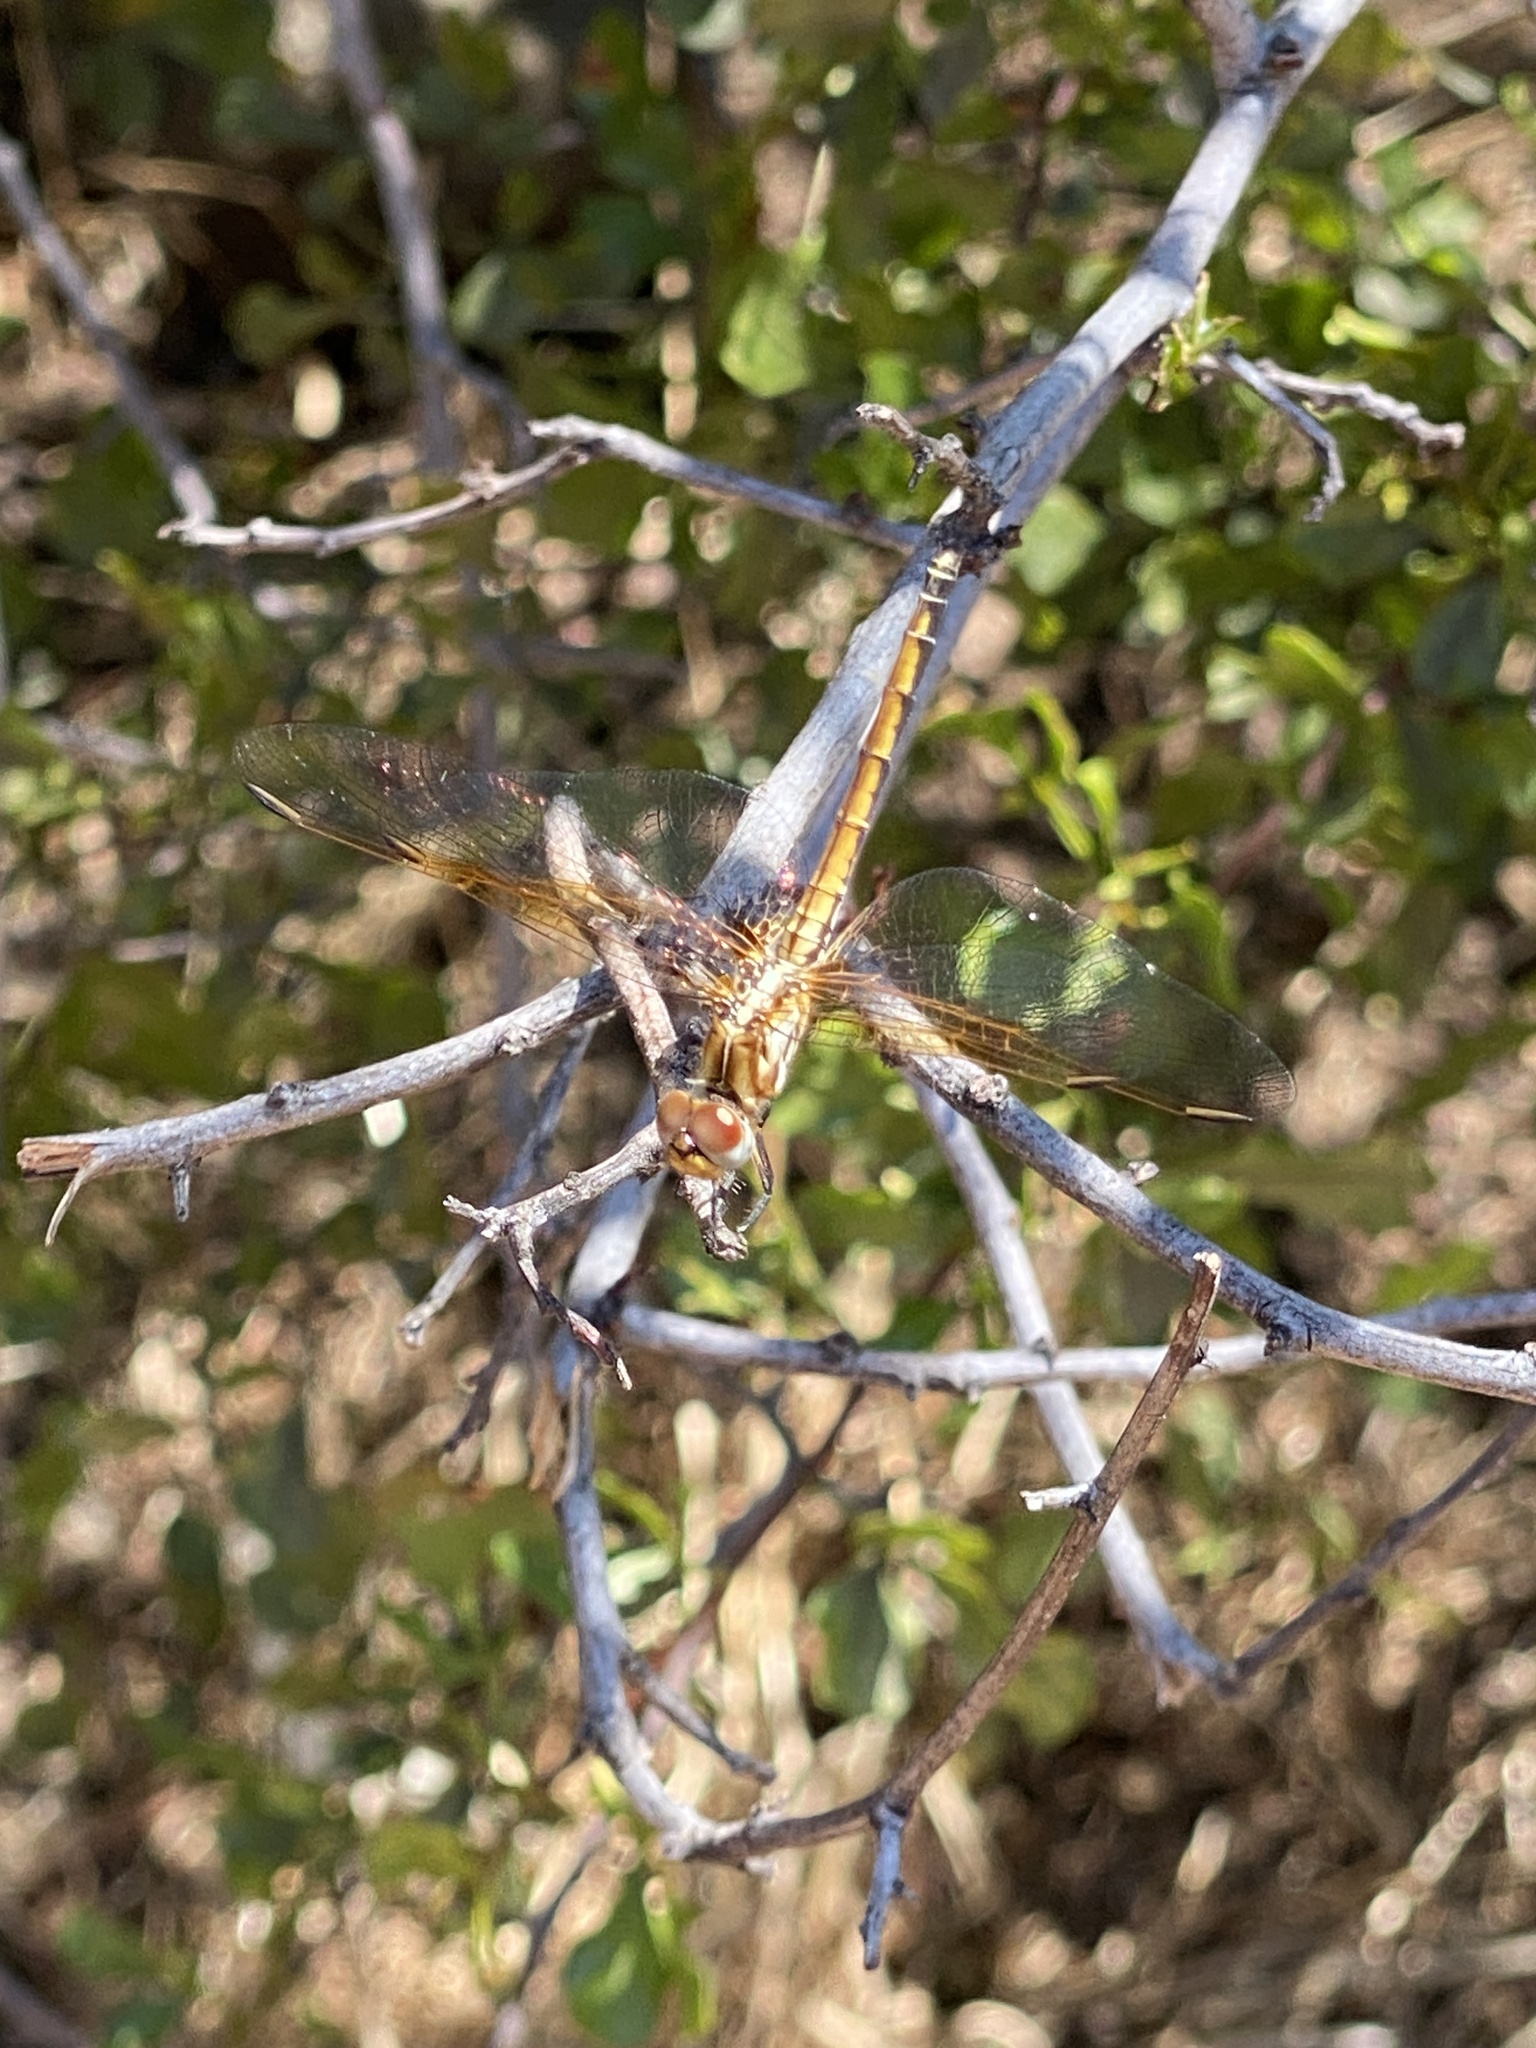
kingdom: Animalia
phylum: Arthropoda
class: Insecta
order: Odonata
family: Libellulidae
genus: Trithemis
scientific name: Trithemis arteriosa
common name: Red-veined dropwing
